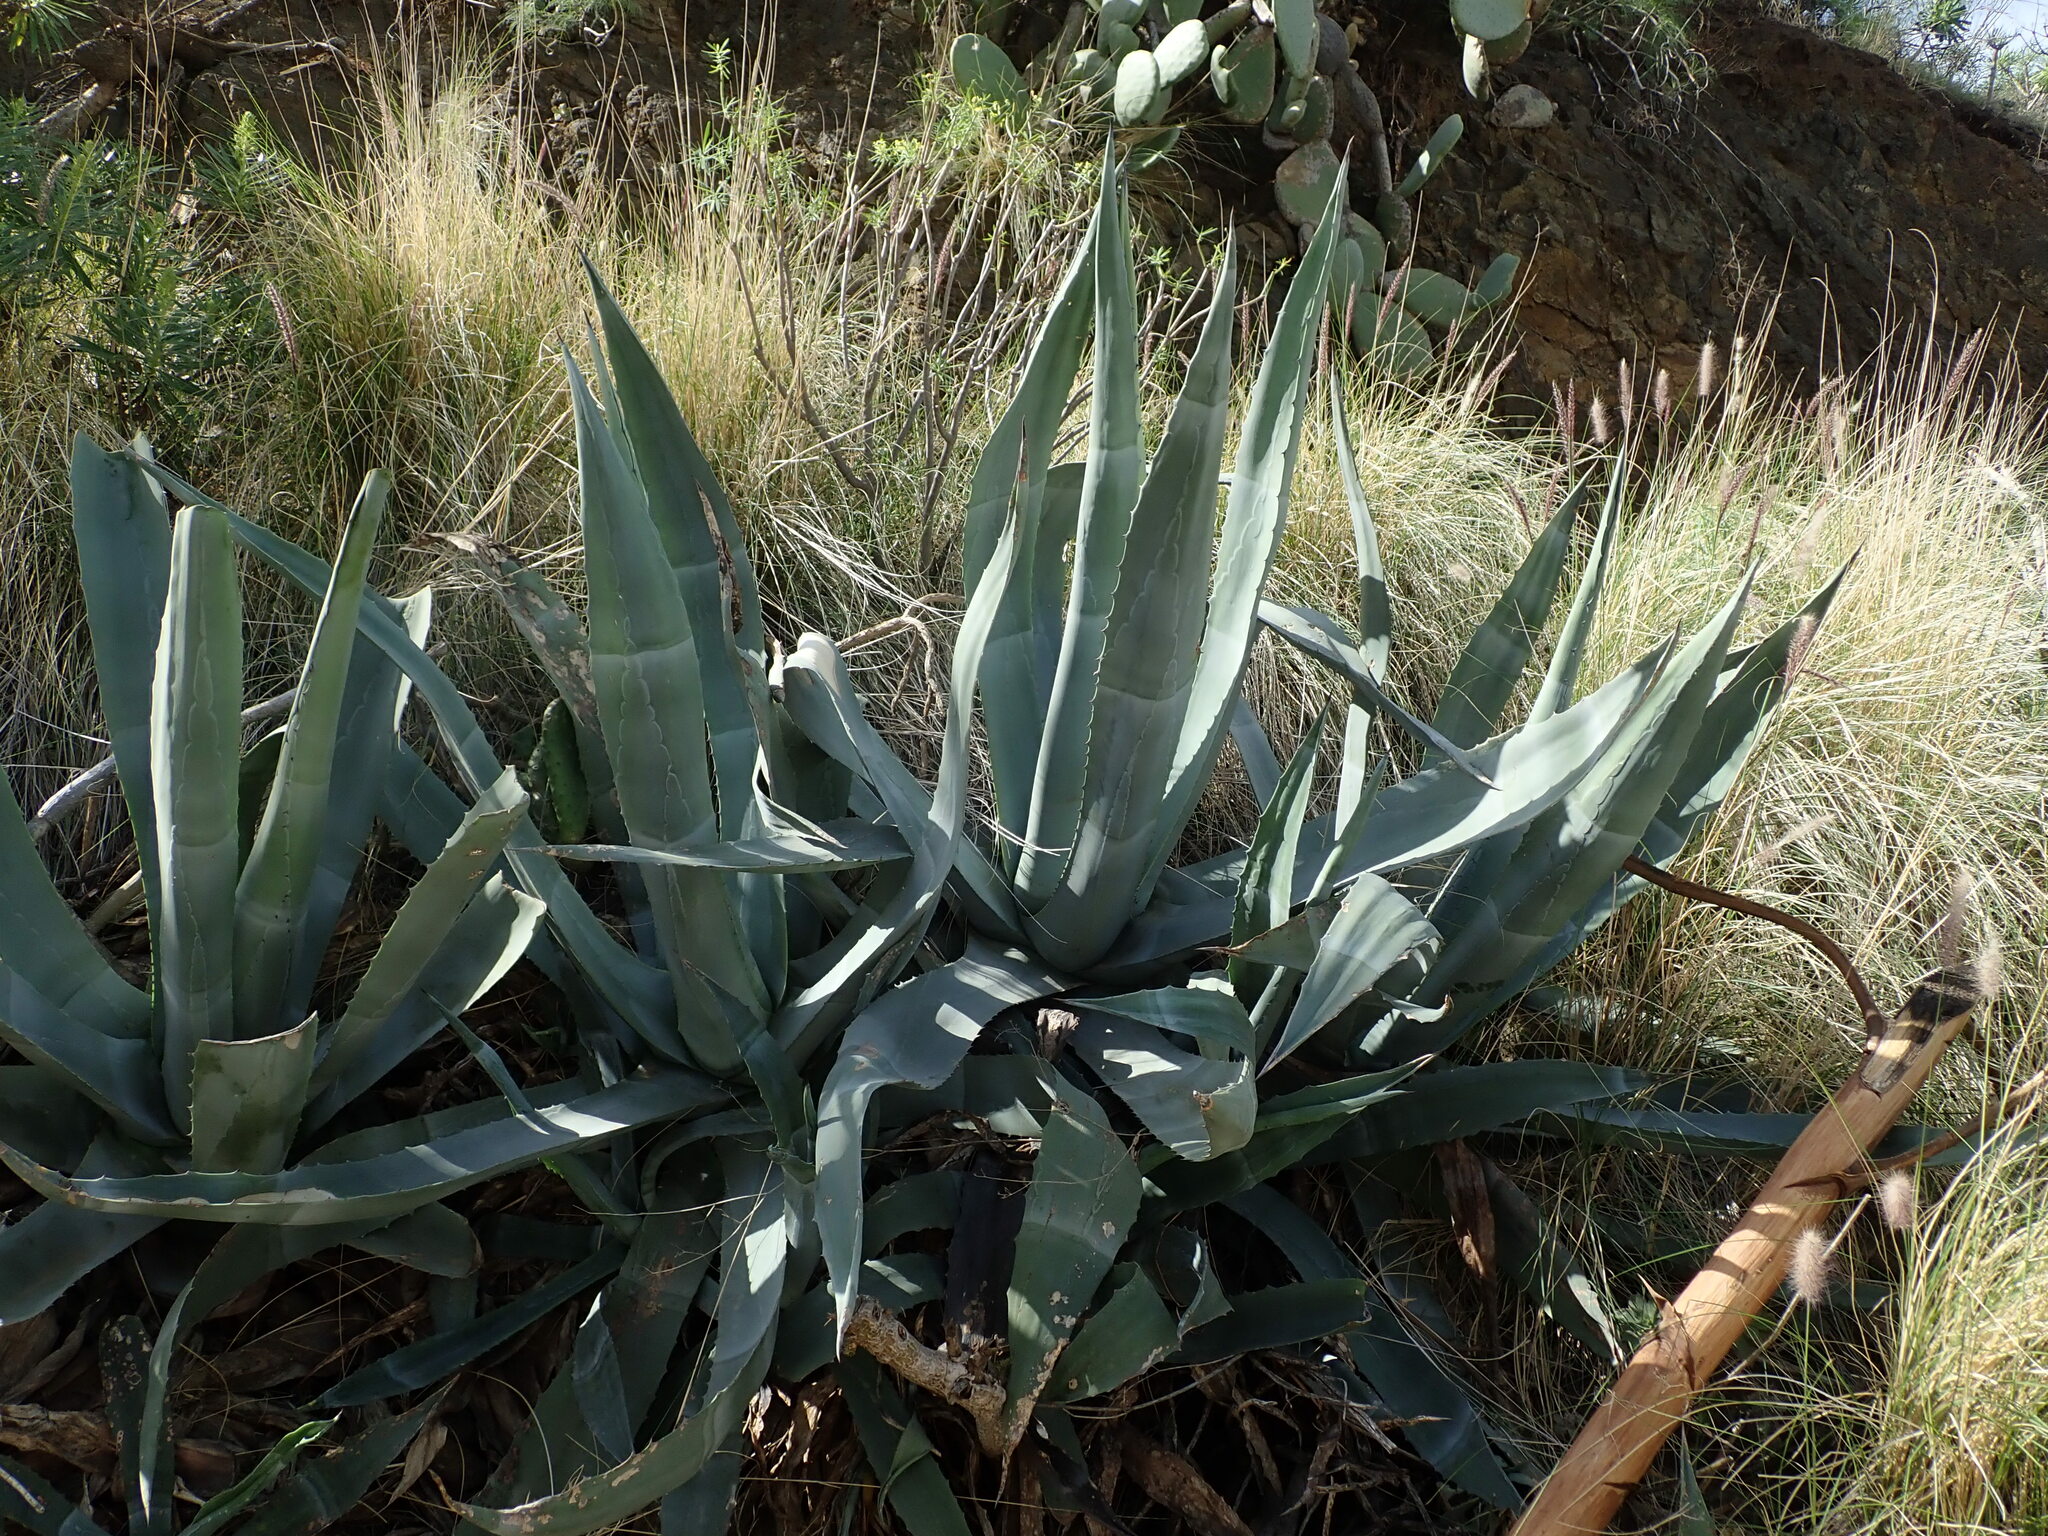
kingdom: Plantae
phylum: Tracheophyta
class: Liliopsida
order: Asparagales
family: Asparagaceae
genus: Agave
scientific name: Agave americana
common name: Centuryplant
